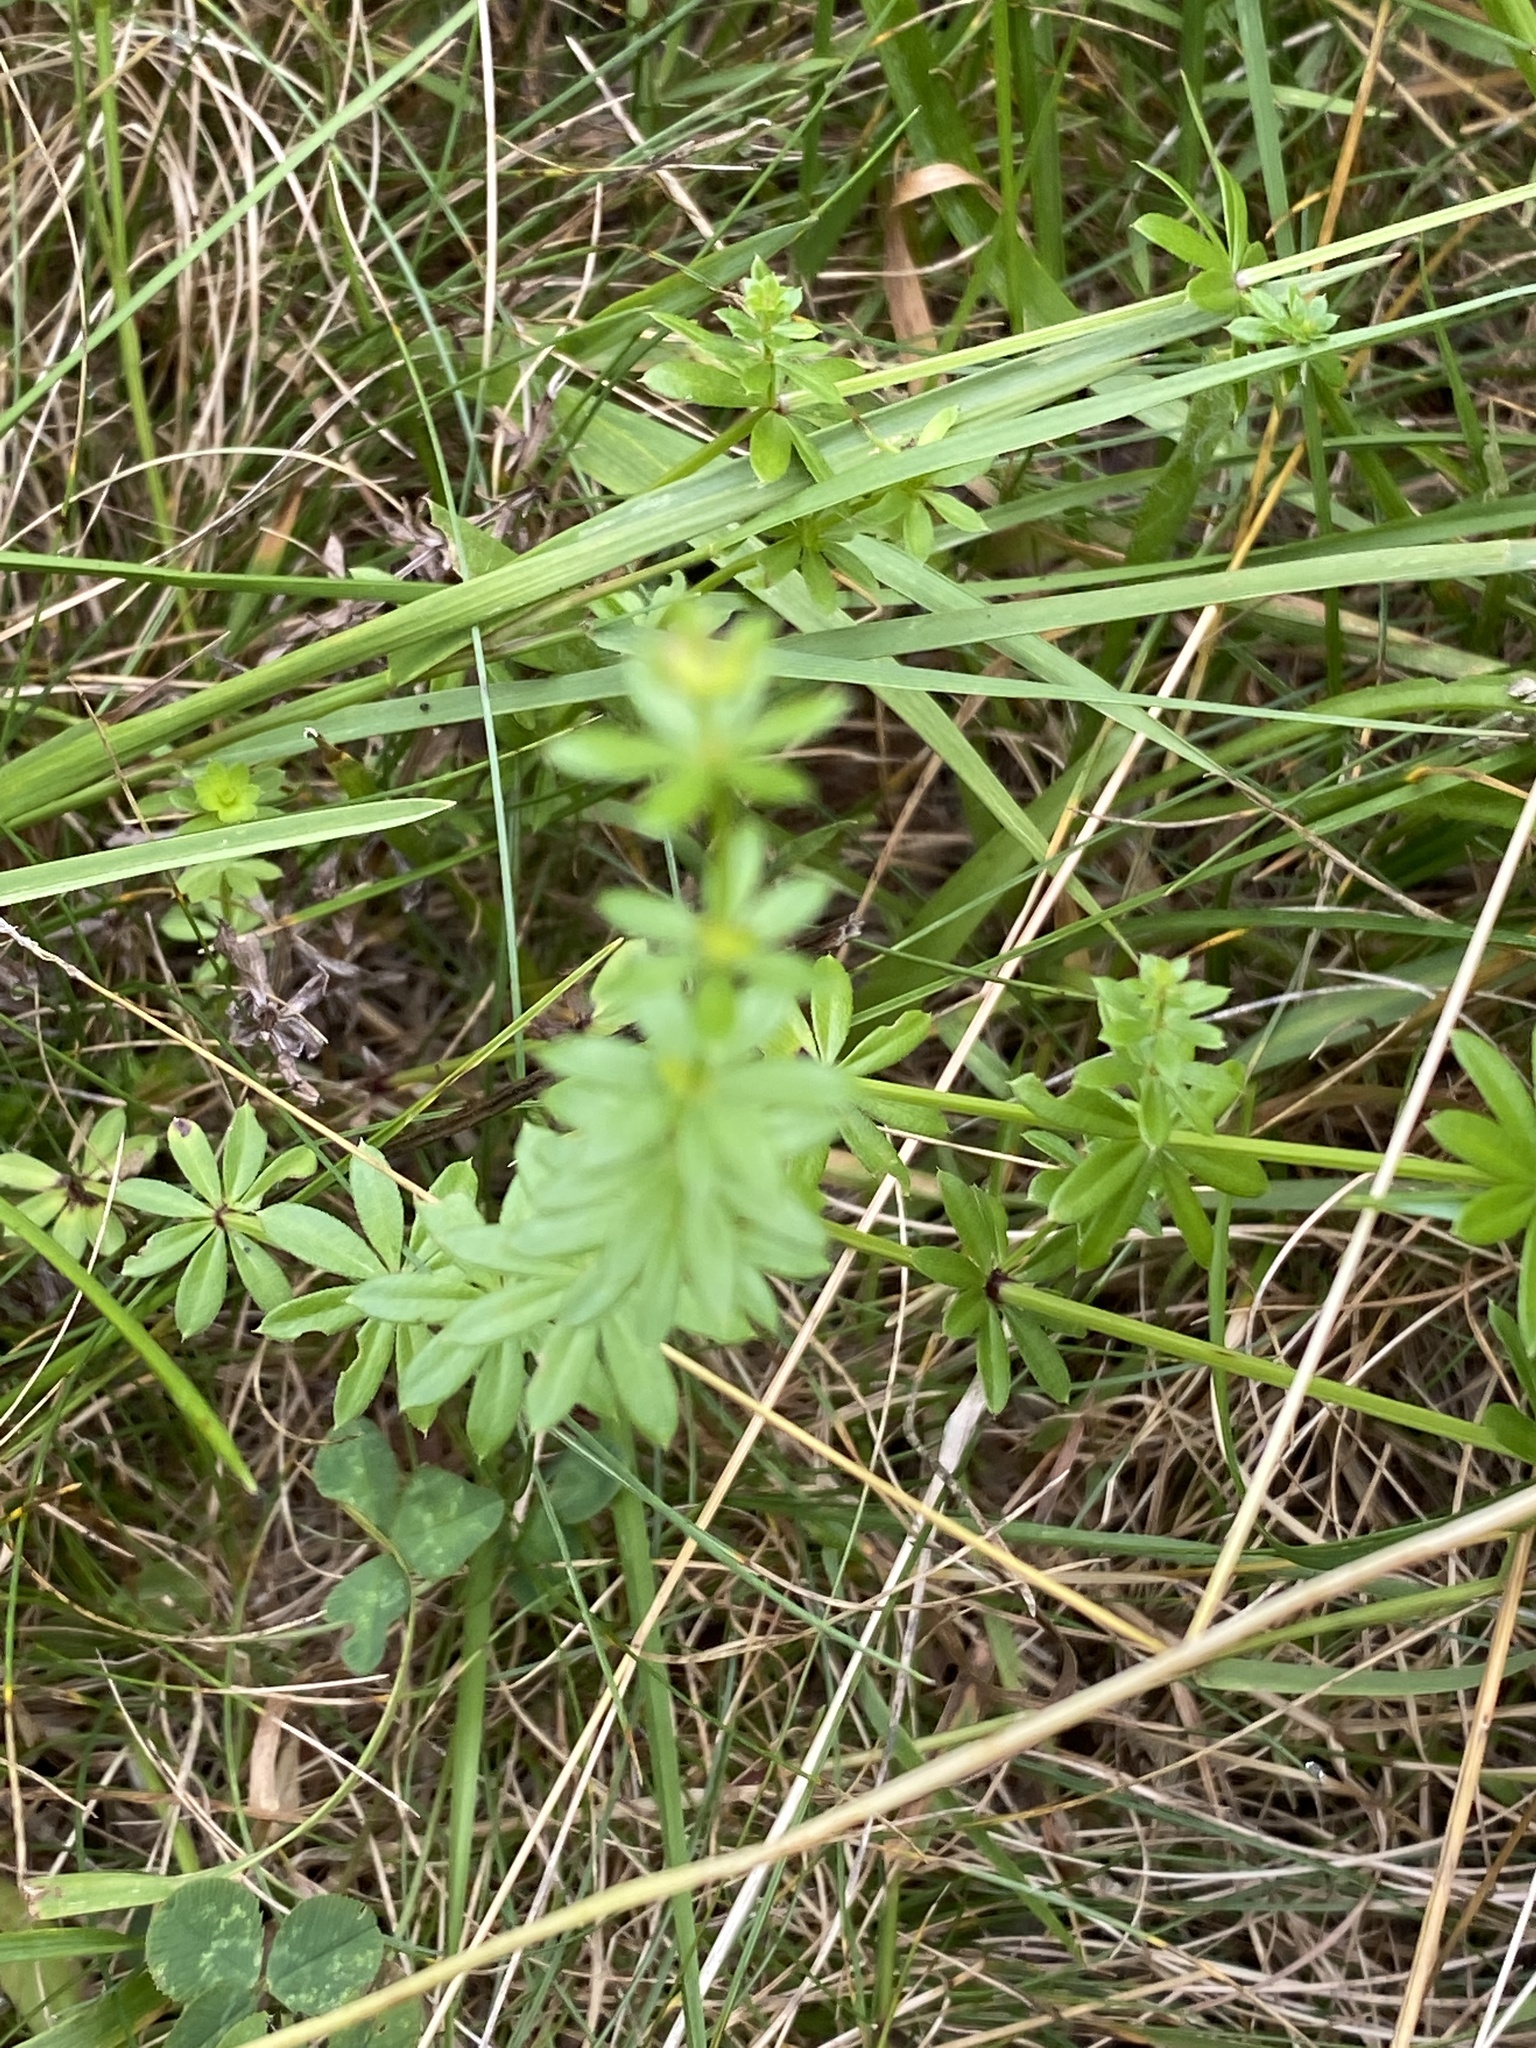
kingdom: Plantae
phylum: Tracheophyta
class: Magnoliopsida
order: Gentianales
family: Rubiaceae
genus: Galium
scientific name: Galium mollugo
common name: Hedge bedstraw
